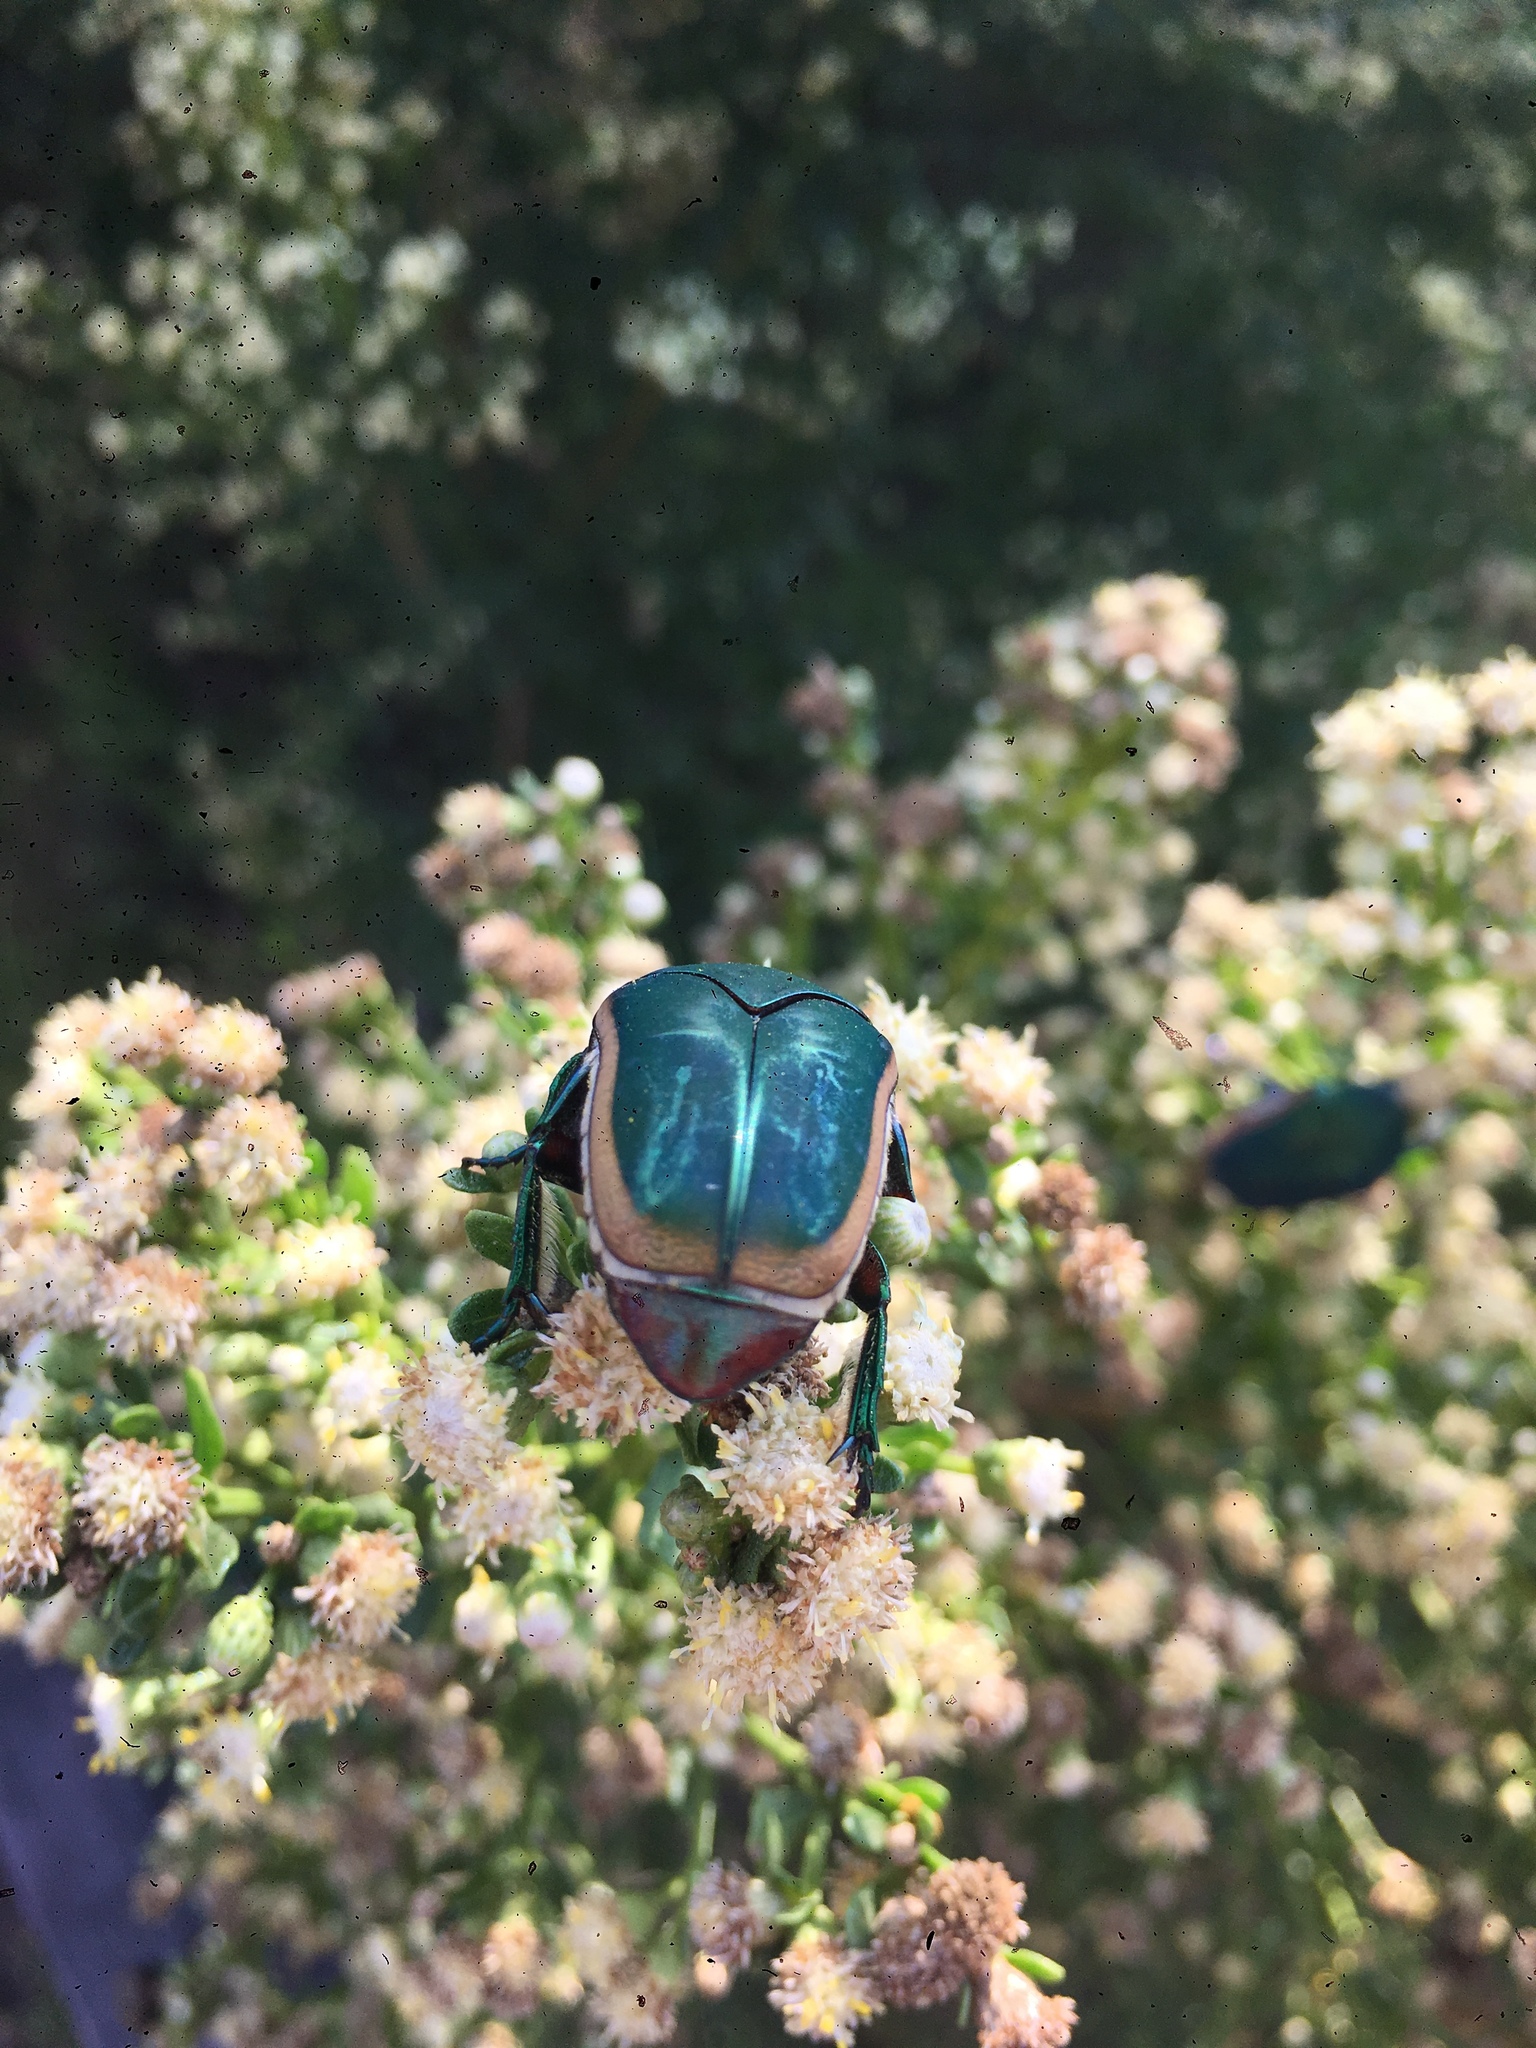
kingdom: Animalia
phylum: Arthropoda
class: Insecta
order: Coleoptera
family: Scarabaeidae
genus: Cotinis
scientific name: Cotinis mutabilis
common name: Figeater beetle
